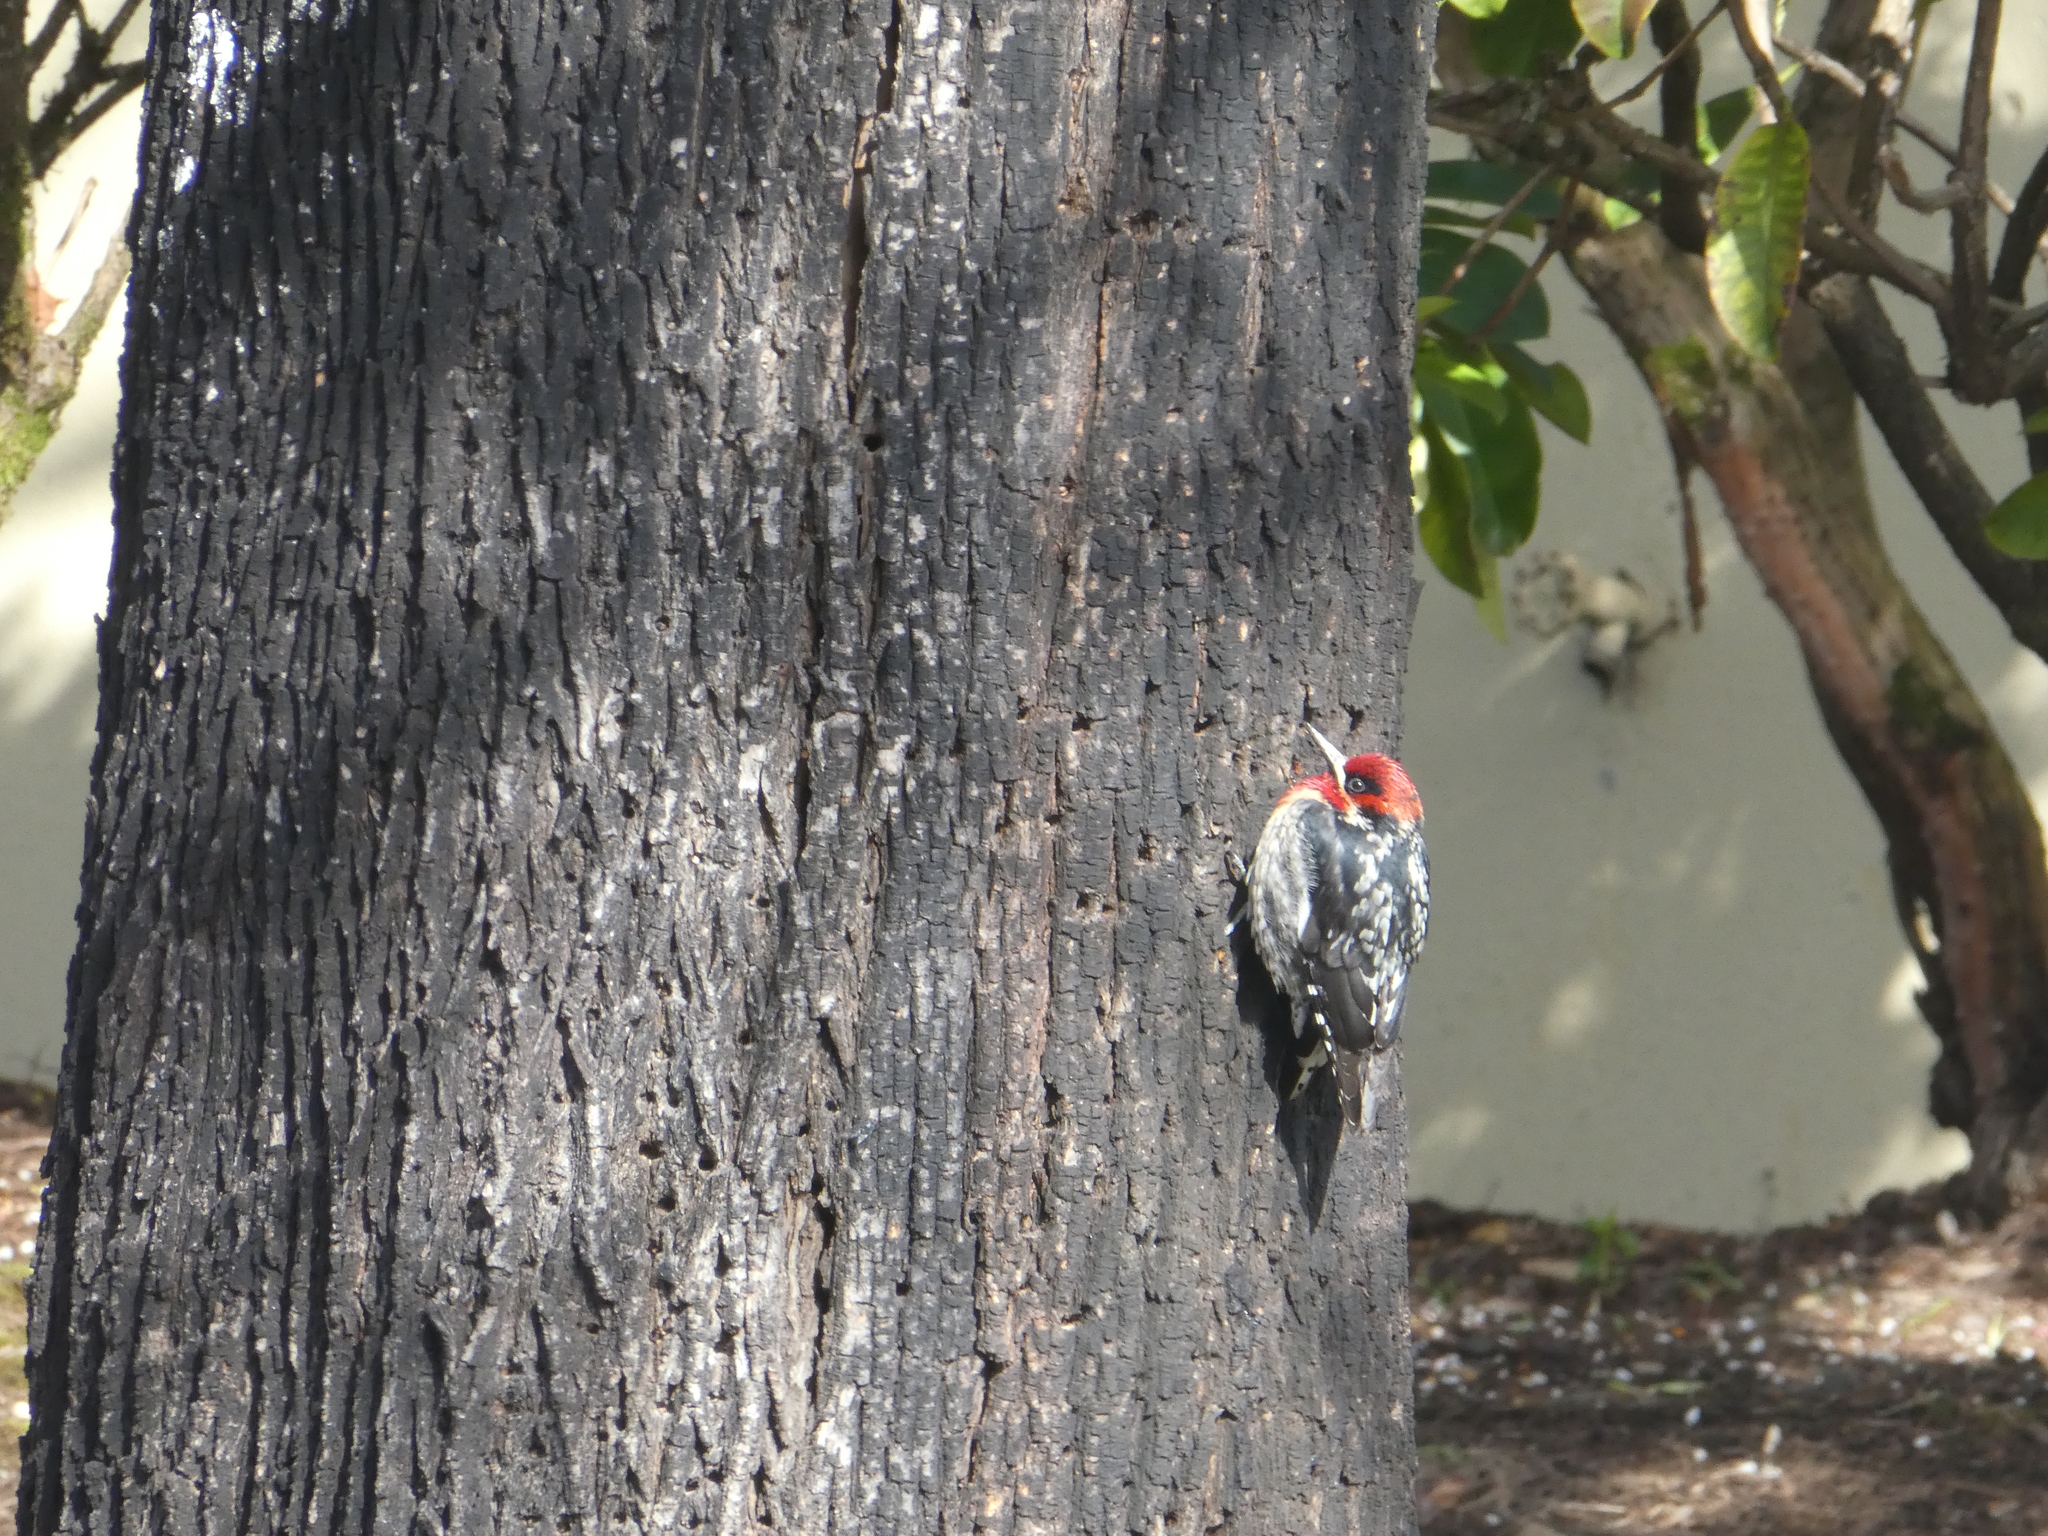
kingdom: Animalia
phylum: Chordata
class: Aves
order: Piciformes
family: Picidae
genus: Sphyrapicus
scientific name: Sphyrapicus ruber
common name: Red-breasted sapsucker
